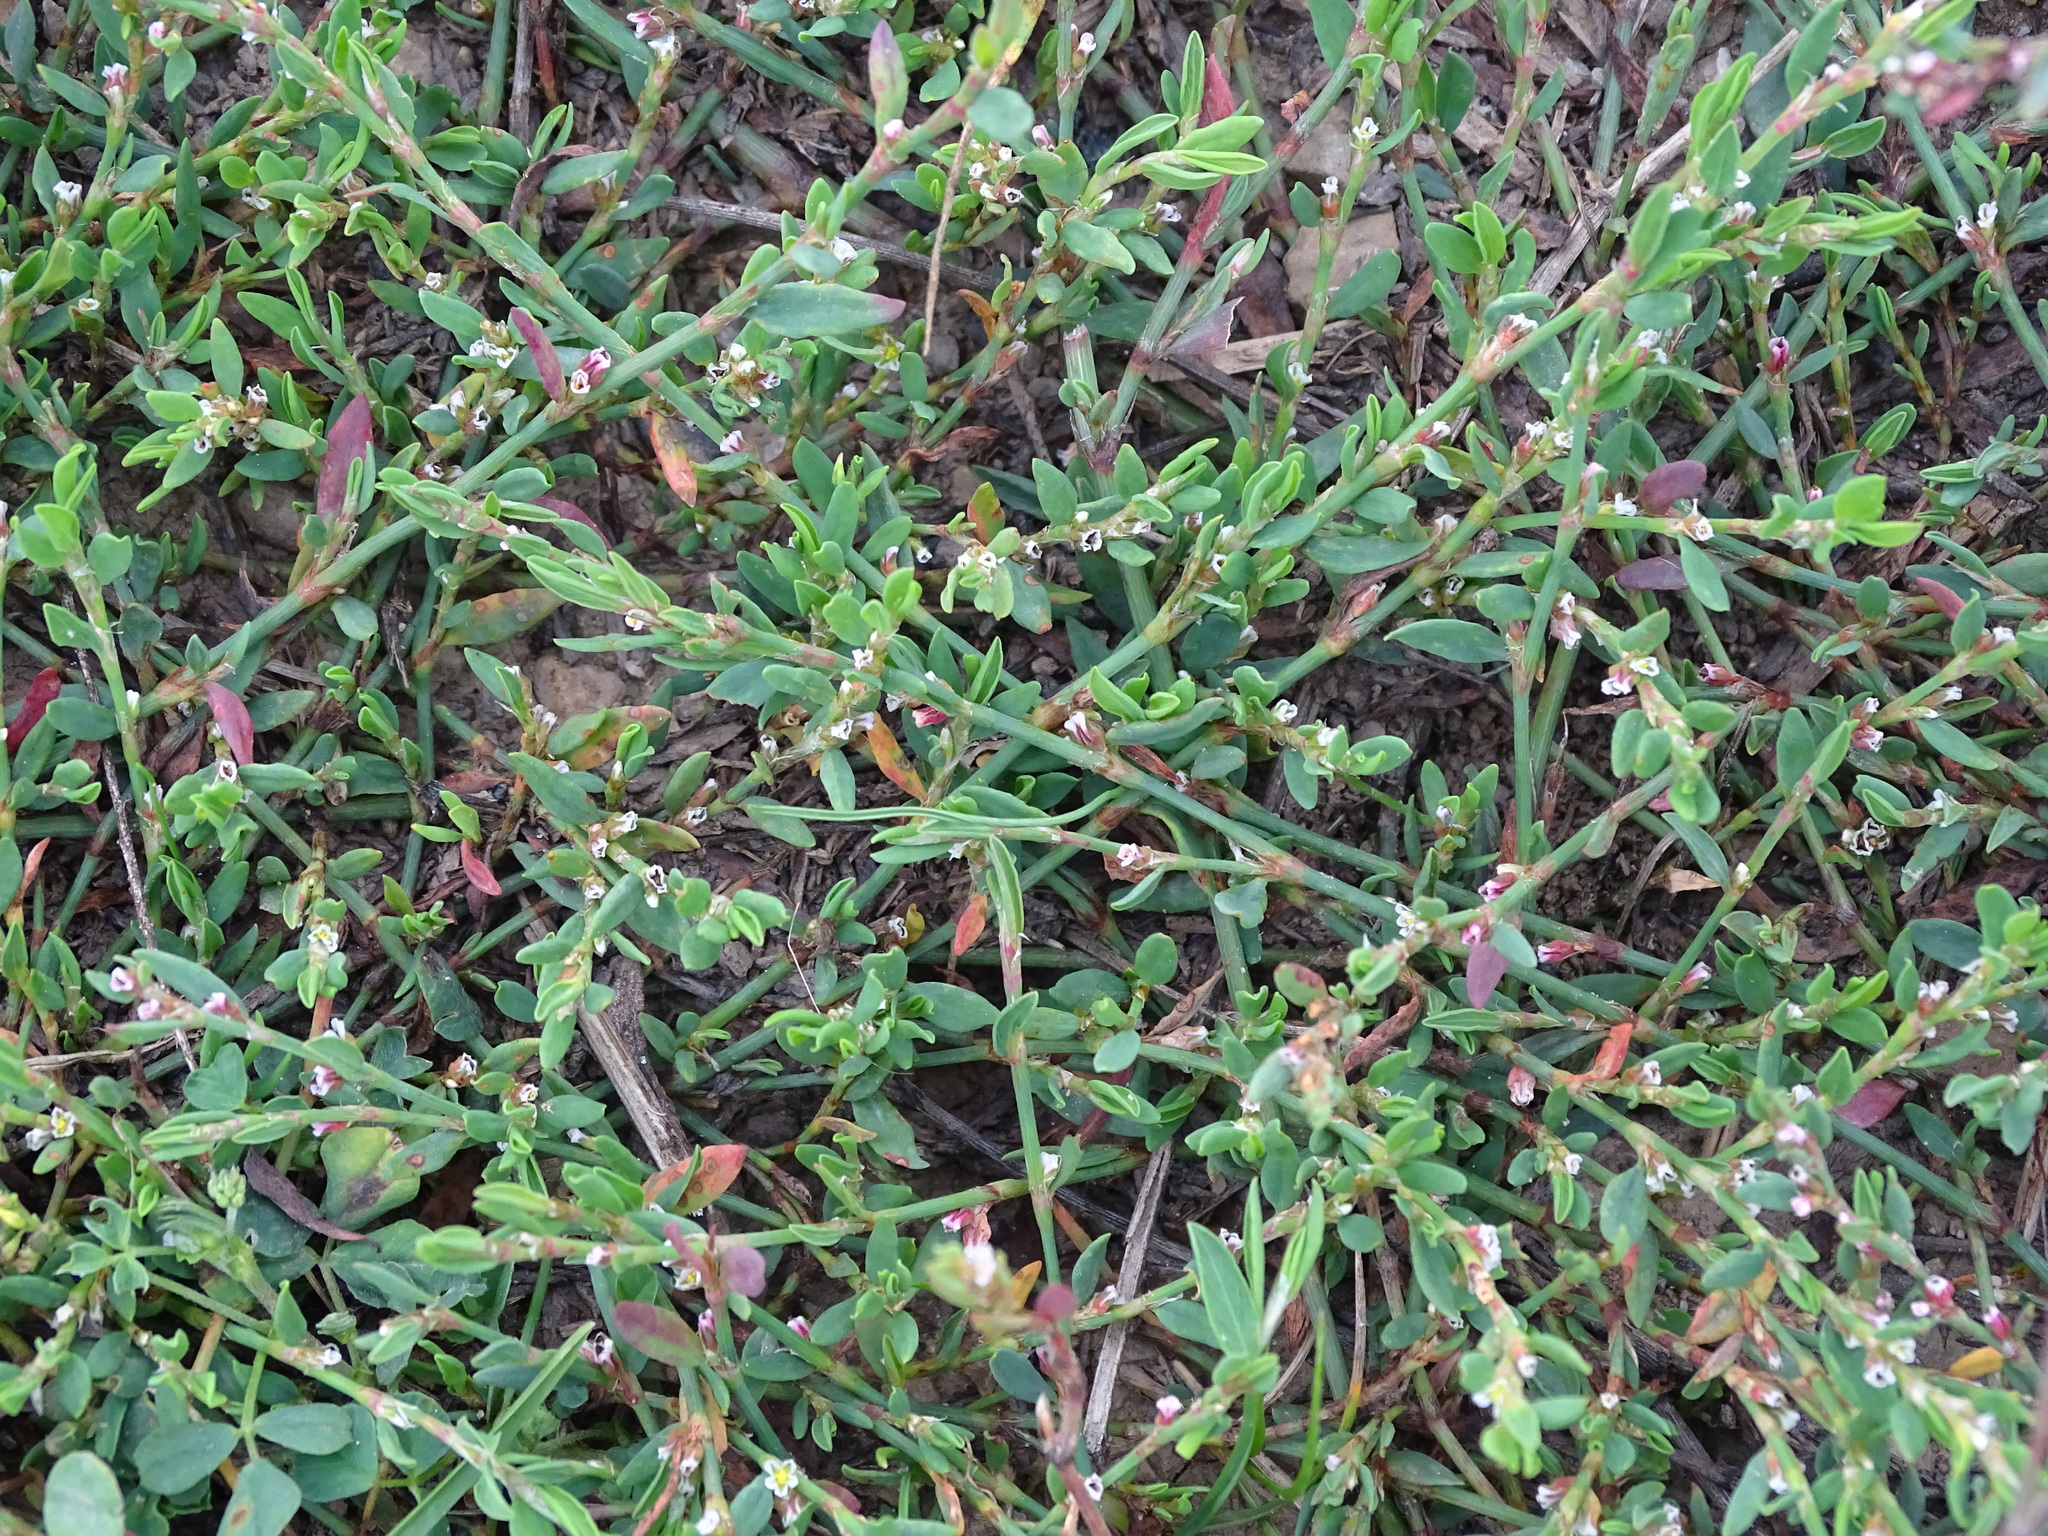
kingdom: Plantae
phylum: Tracheophyta
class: Magnoliopsida
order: Caryophyllales
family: Polygonaceae
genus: Polygonum
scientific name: Polygonum aviculare
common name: Prostrate knotweed
